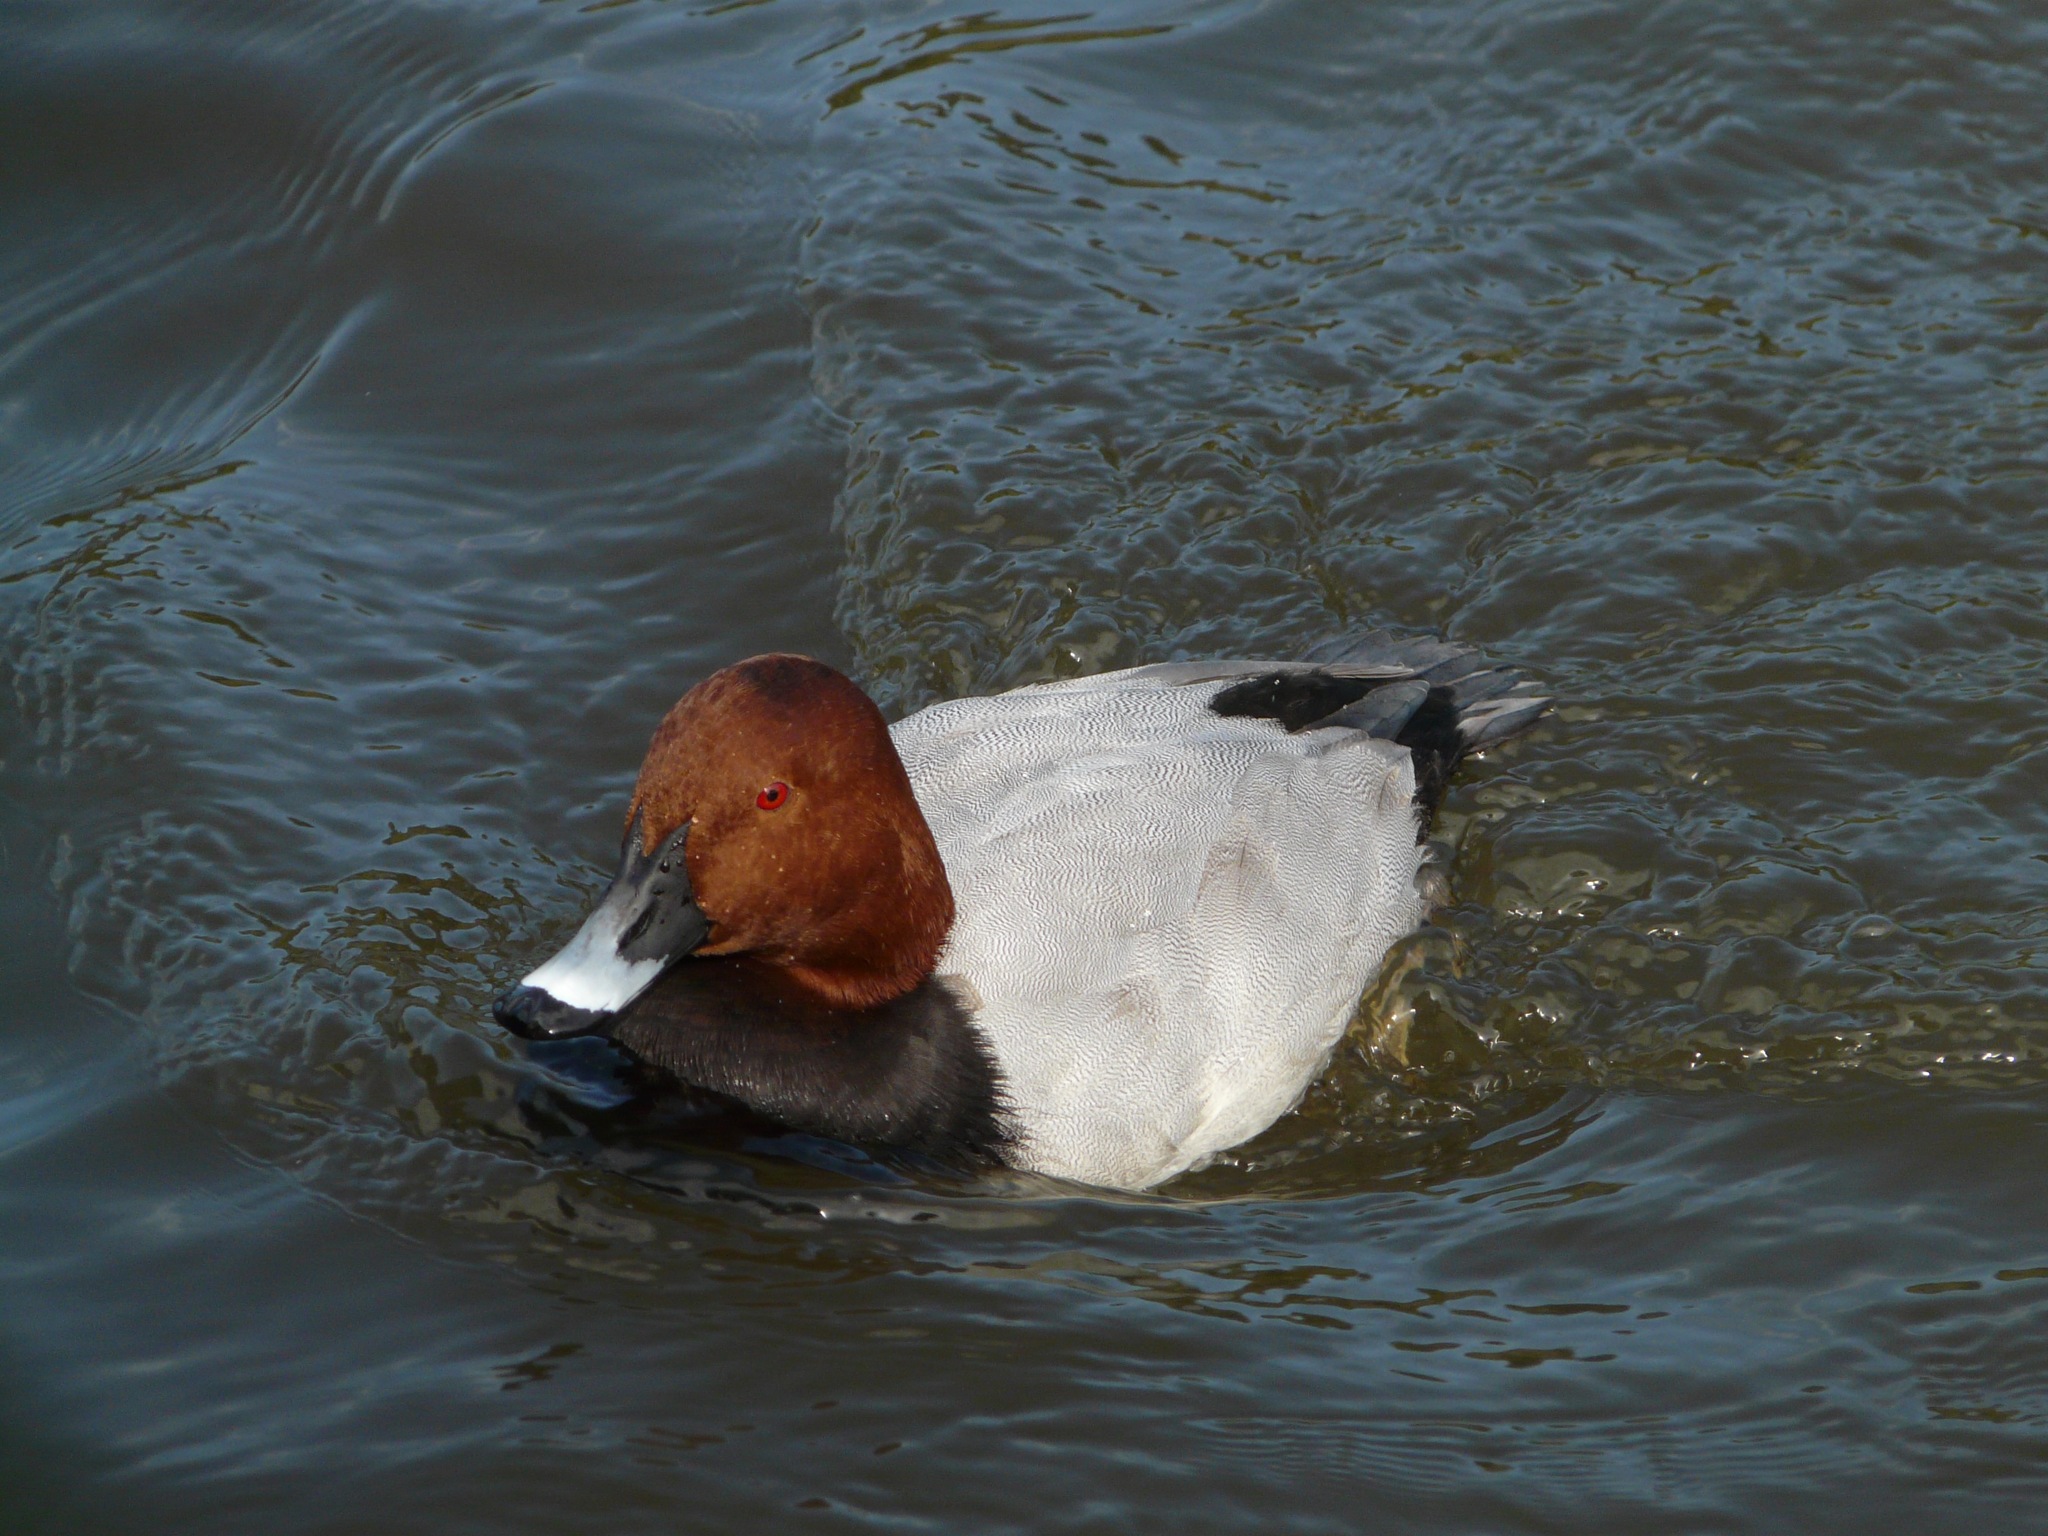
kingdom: Animalia
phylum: Chordata
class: Aves
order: Anseriformes
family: Anatidae
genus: Aythya
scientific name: Aythya ferina
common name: Common pochard
